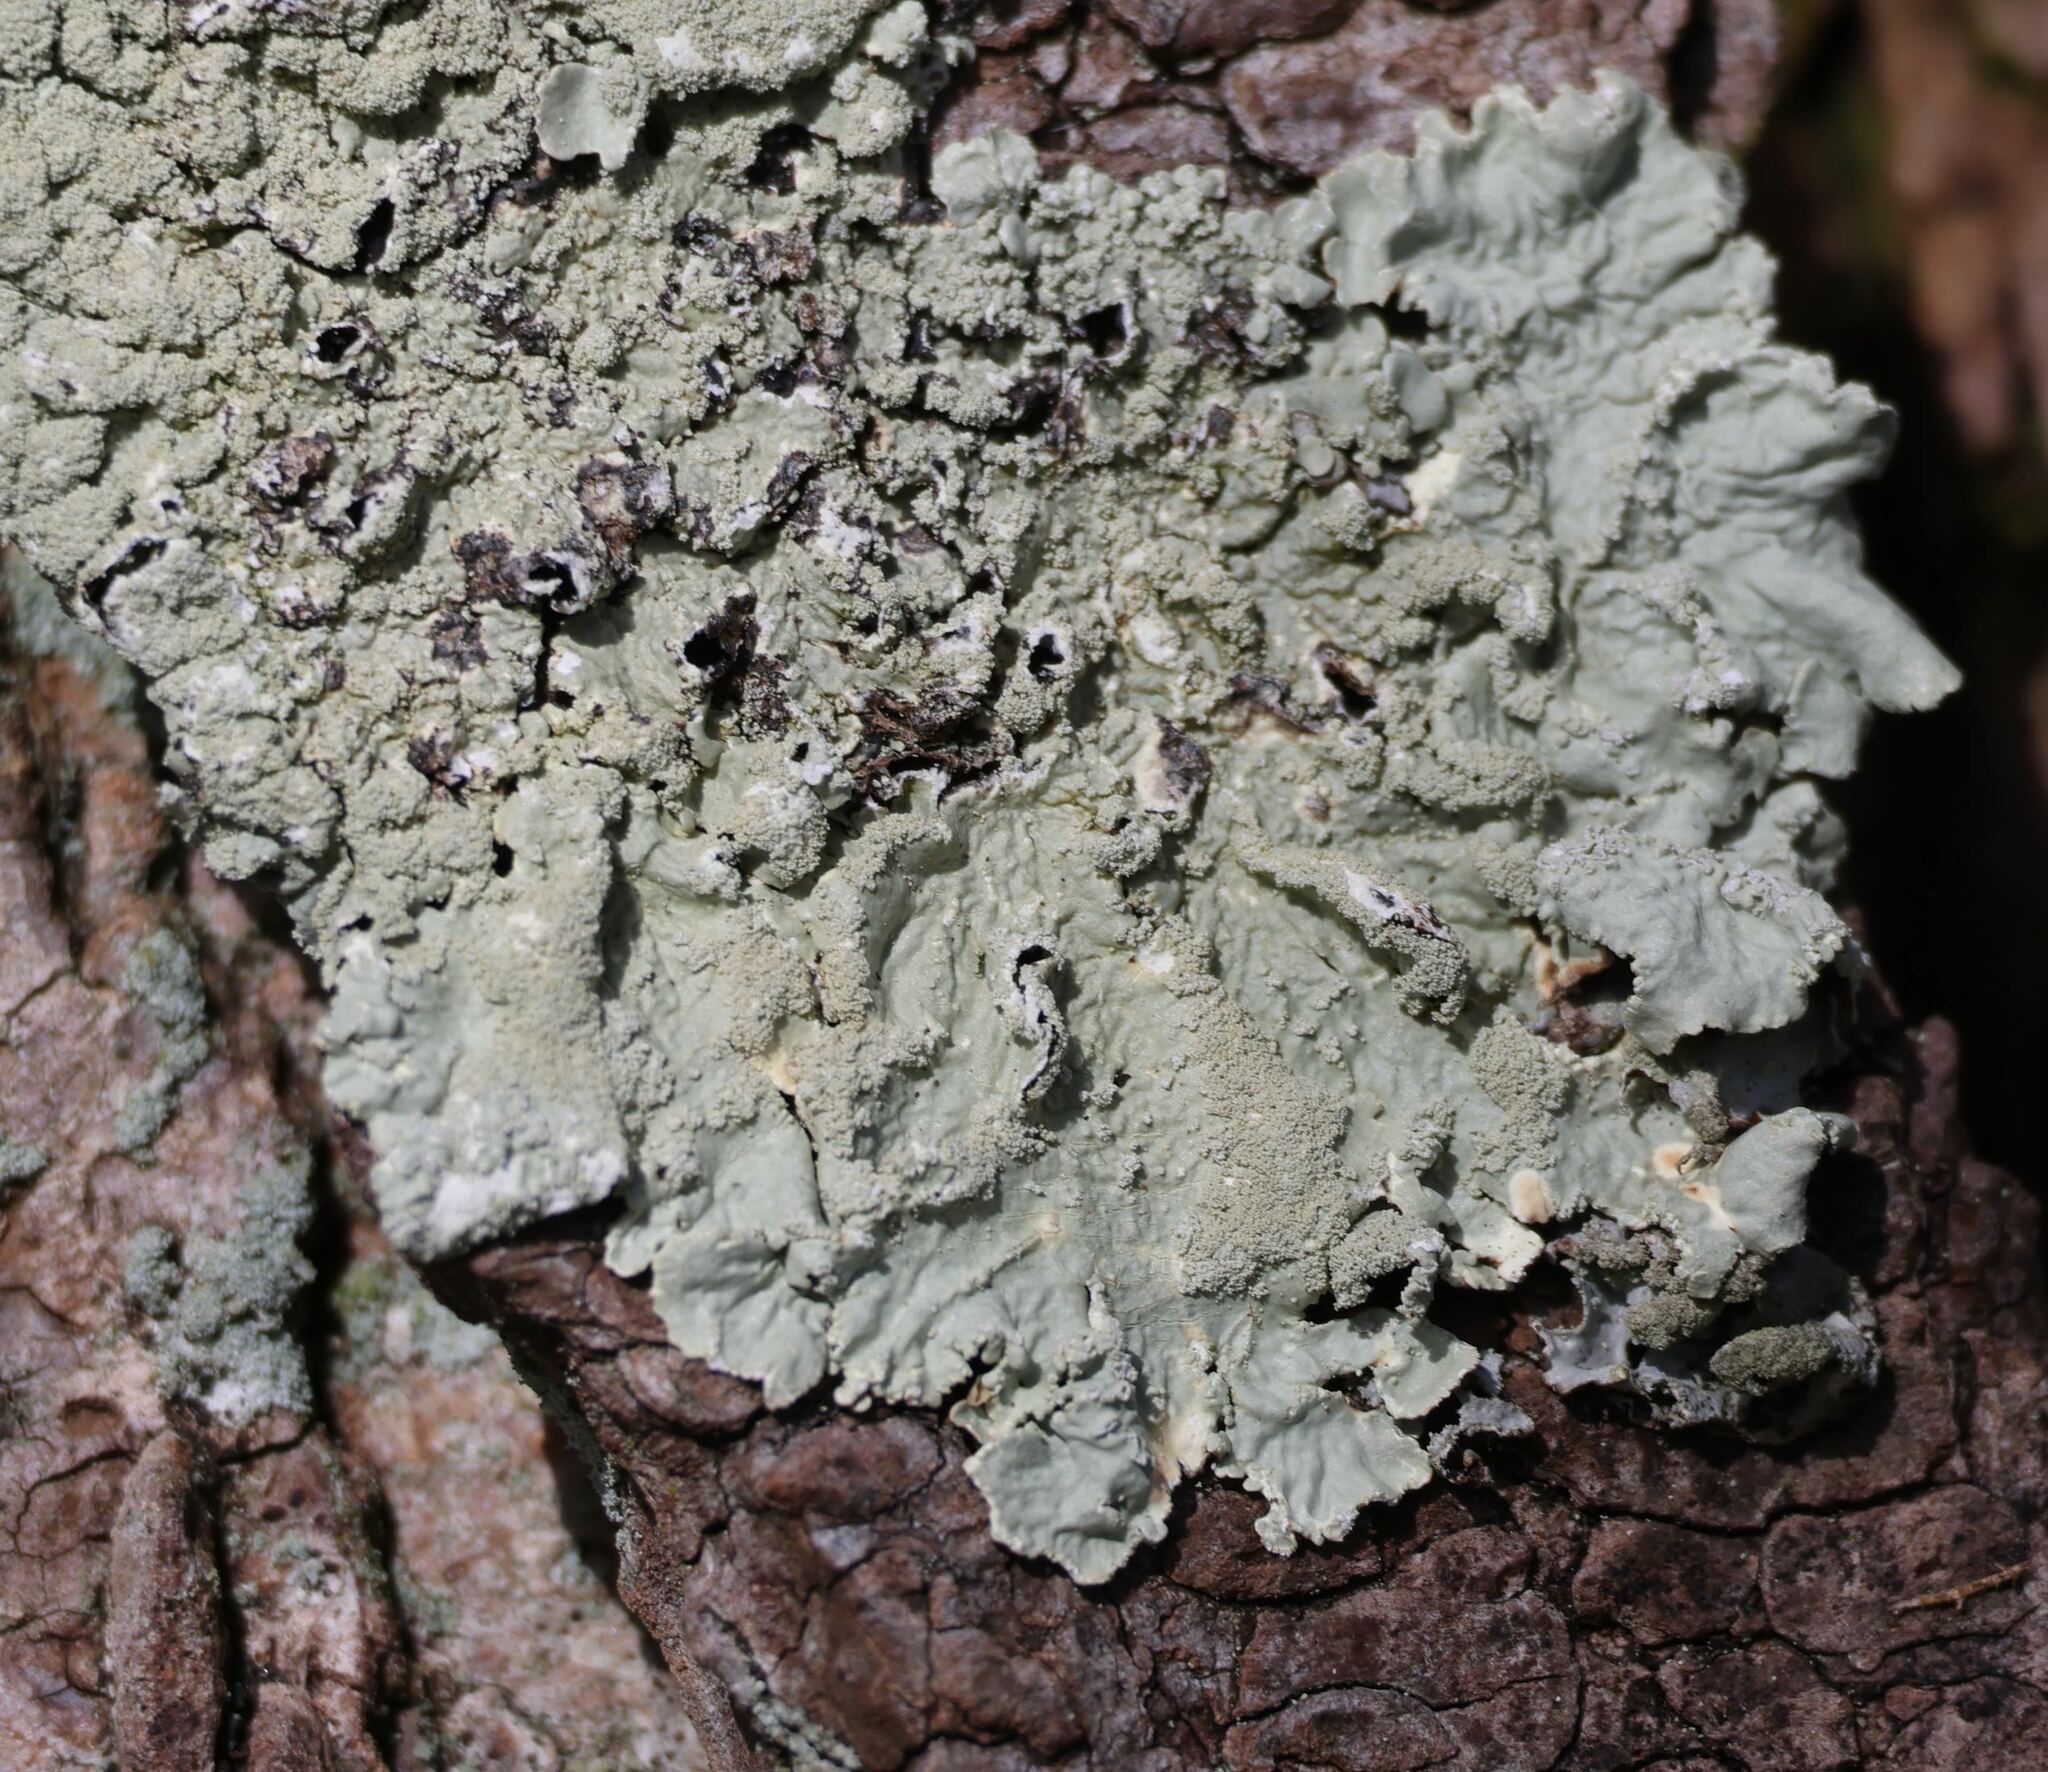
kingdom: Fungi
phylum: Ascomycota
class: Lecanoromycetes
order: Lecanorales
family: Parmeliaceae
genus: Flavoparmelia
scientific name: Flavoparmelia caperata
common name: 40-mile per hour lichen
